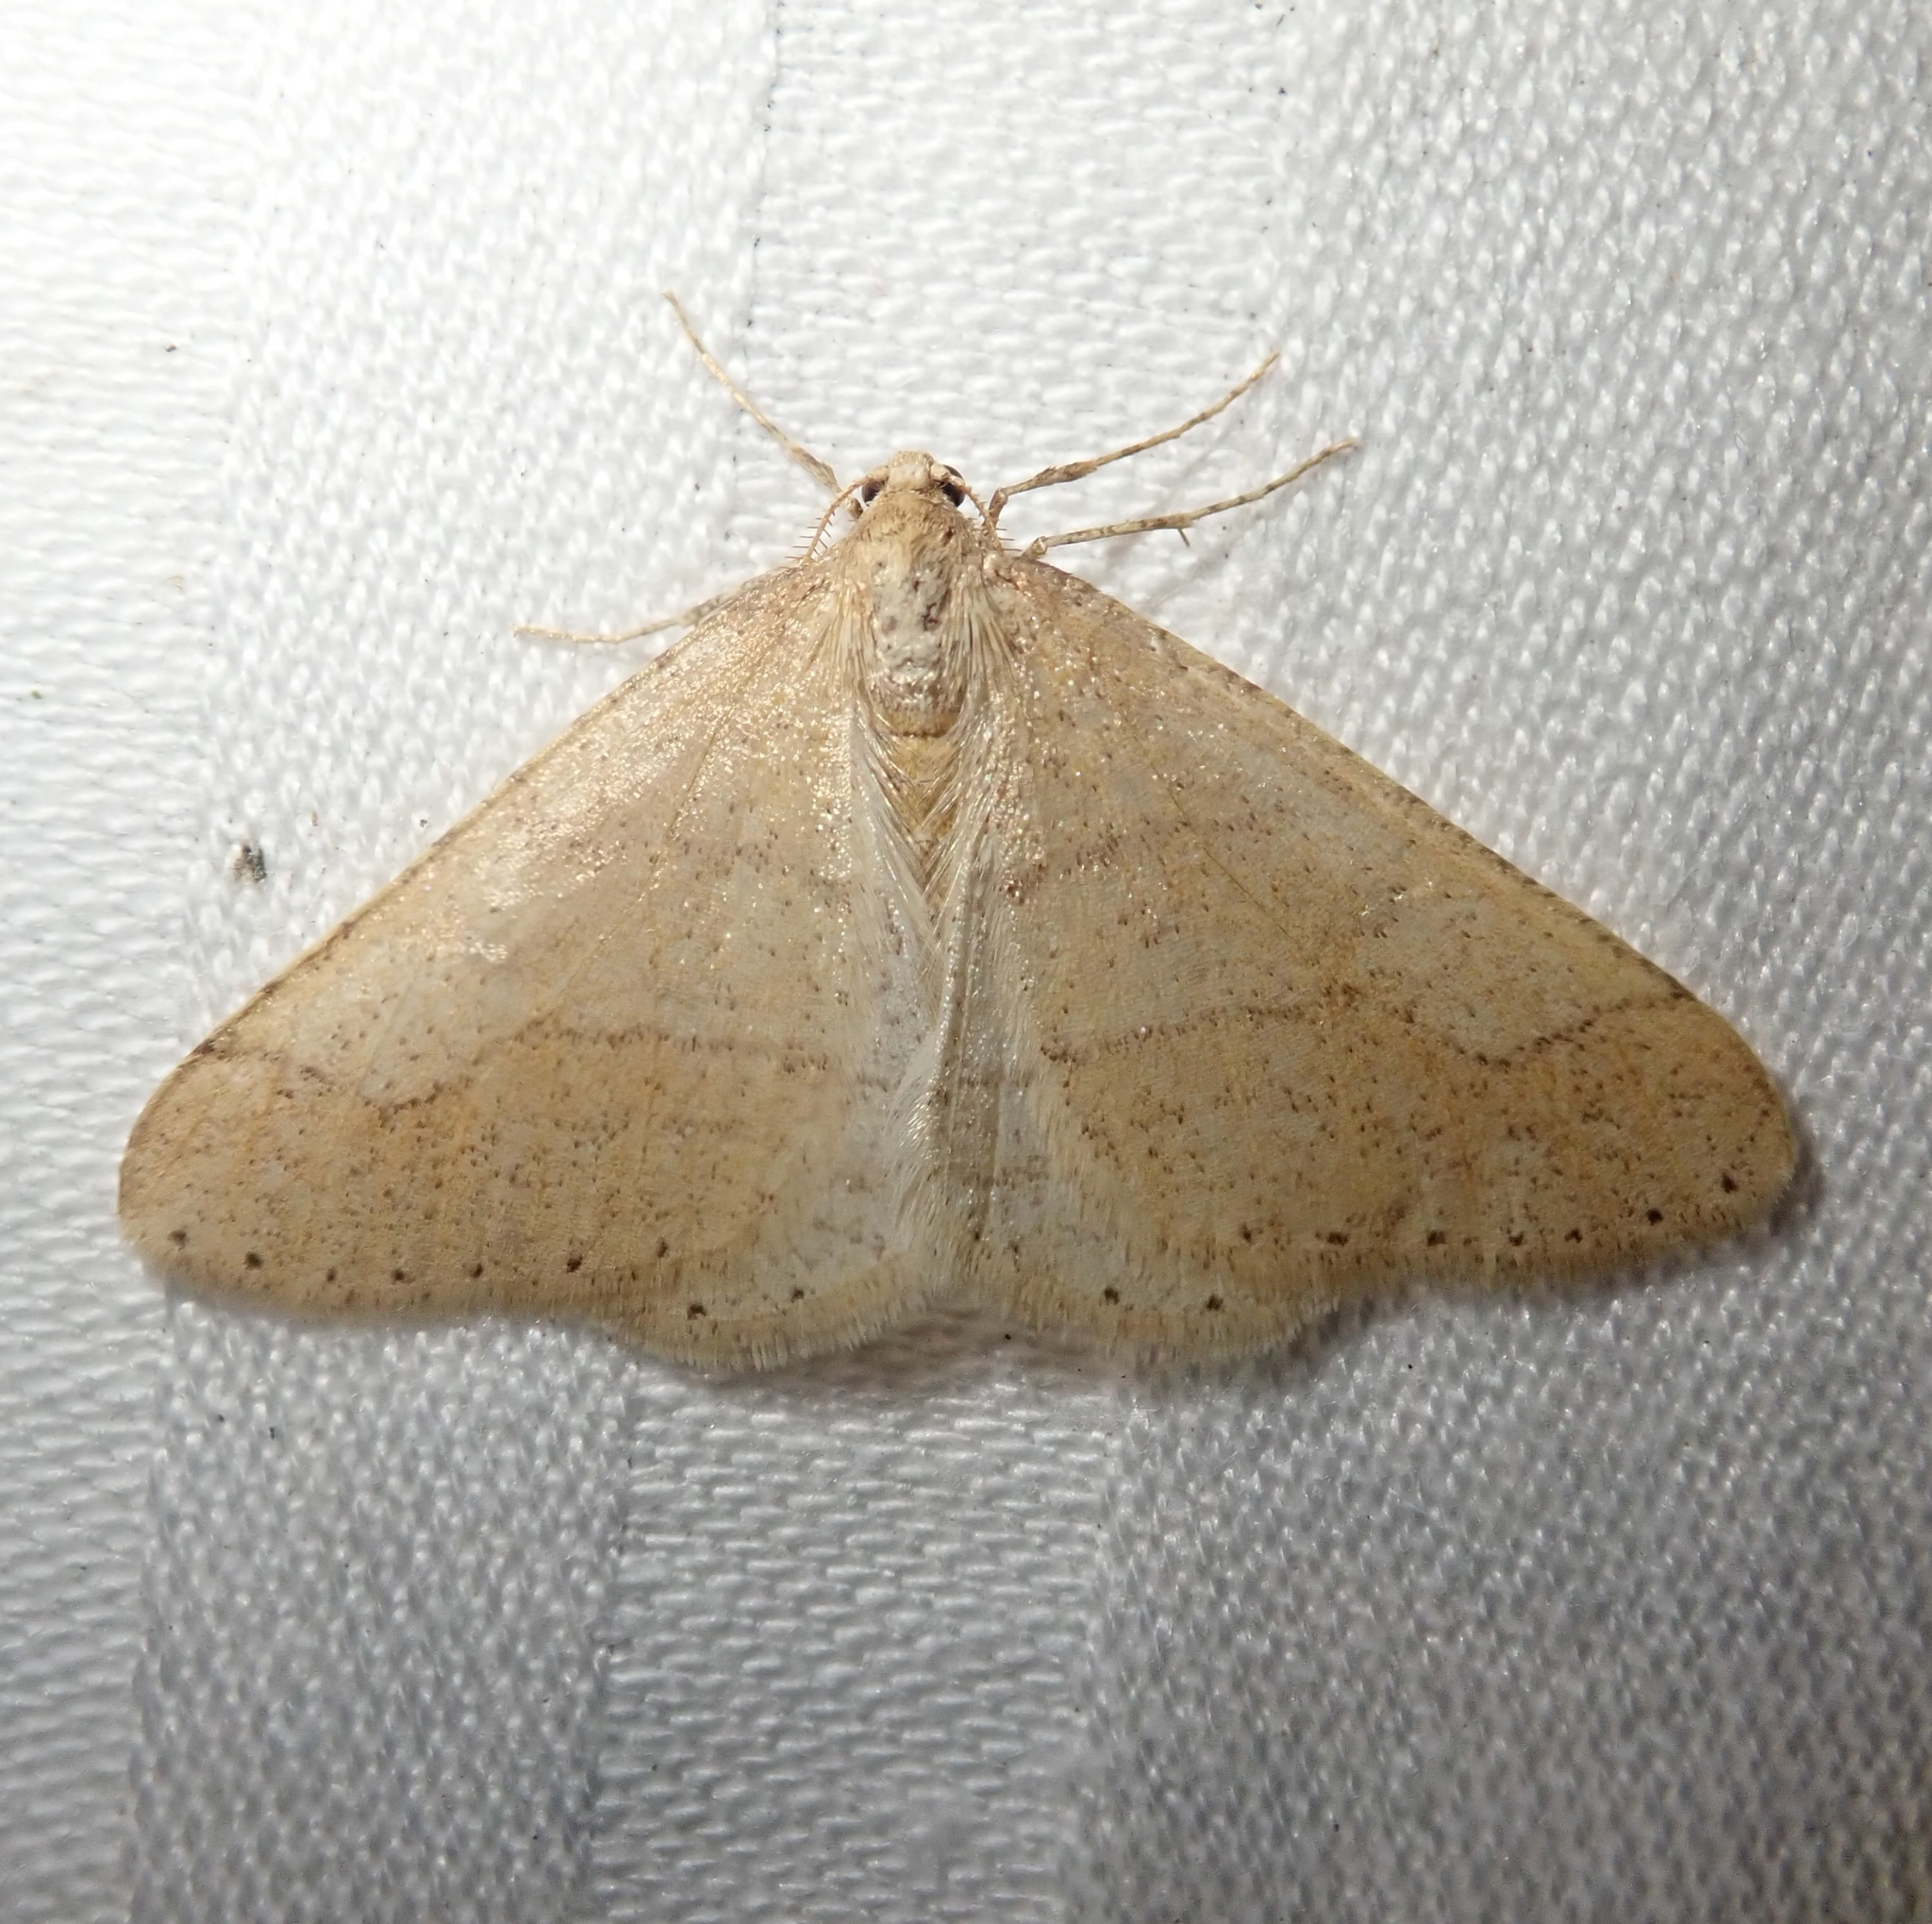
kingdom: Animalia
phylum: Arthropoda
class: Insecta
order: Lepidoptera
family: Geometridae
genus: Agriopis
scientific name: Agriopis marginaria
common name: Dotted border
